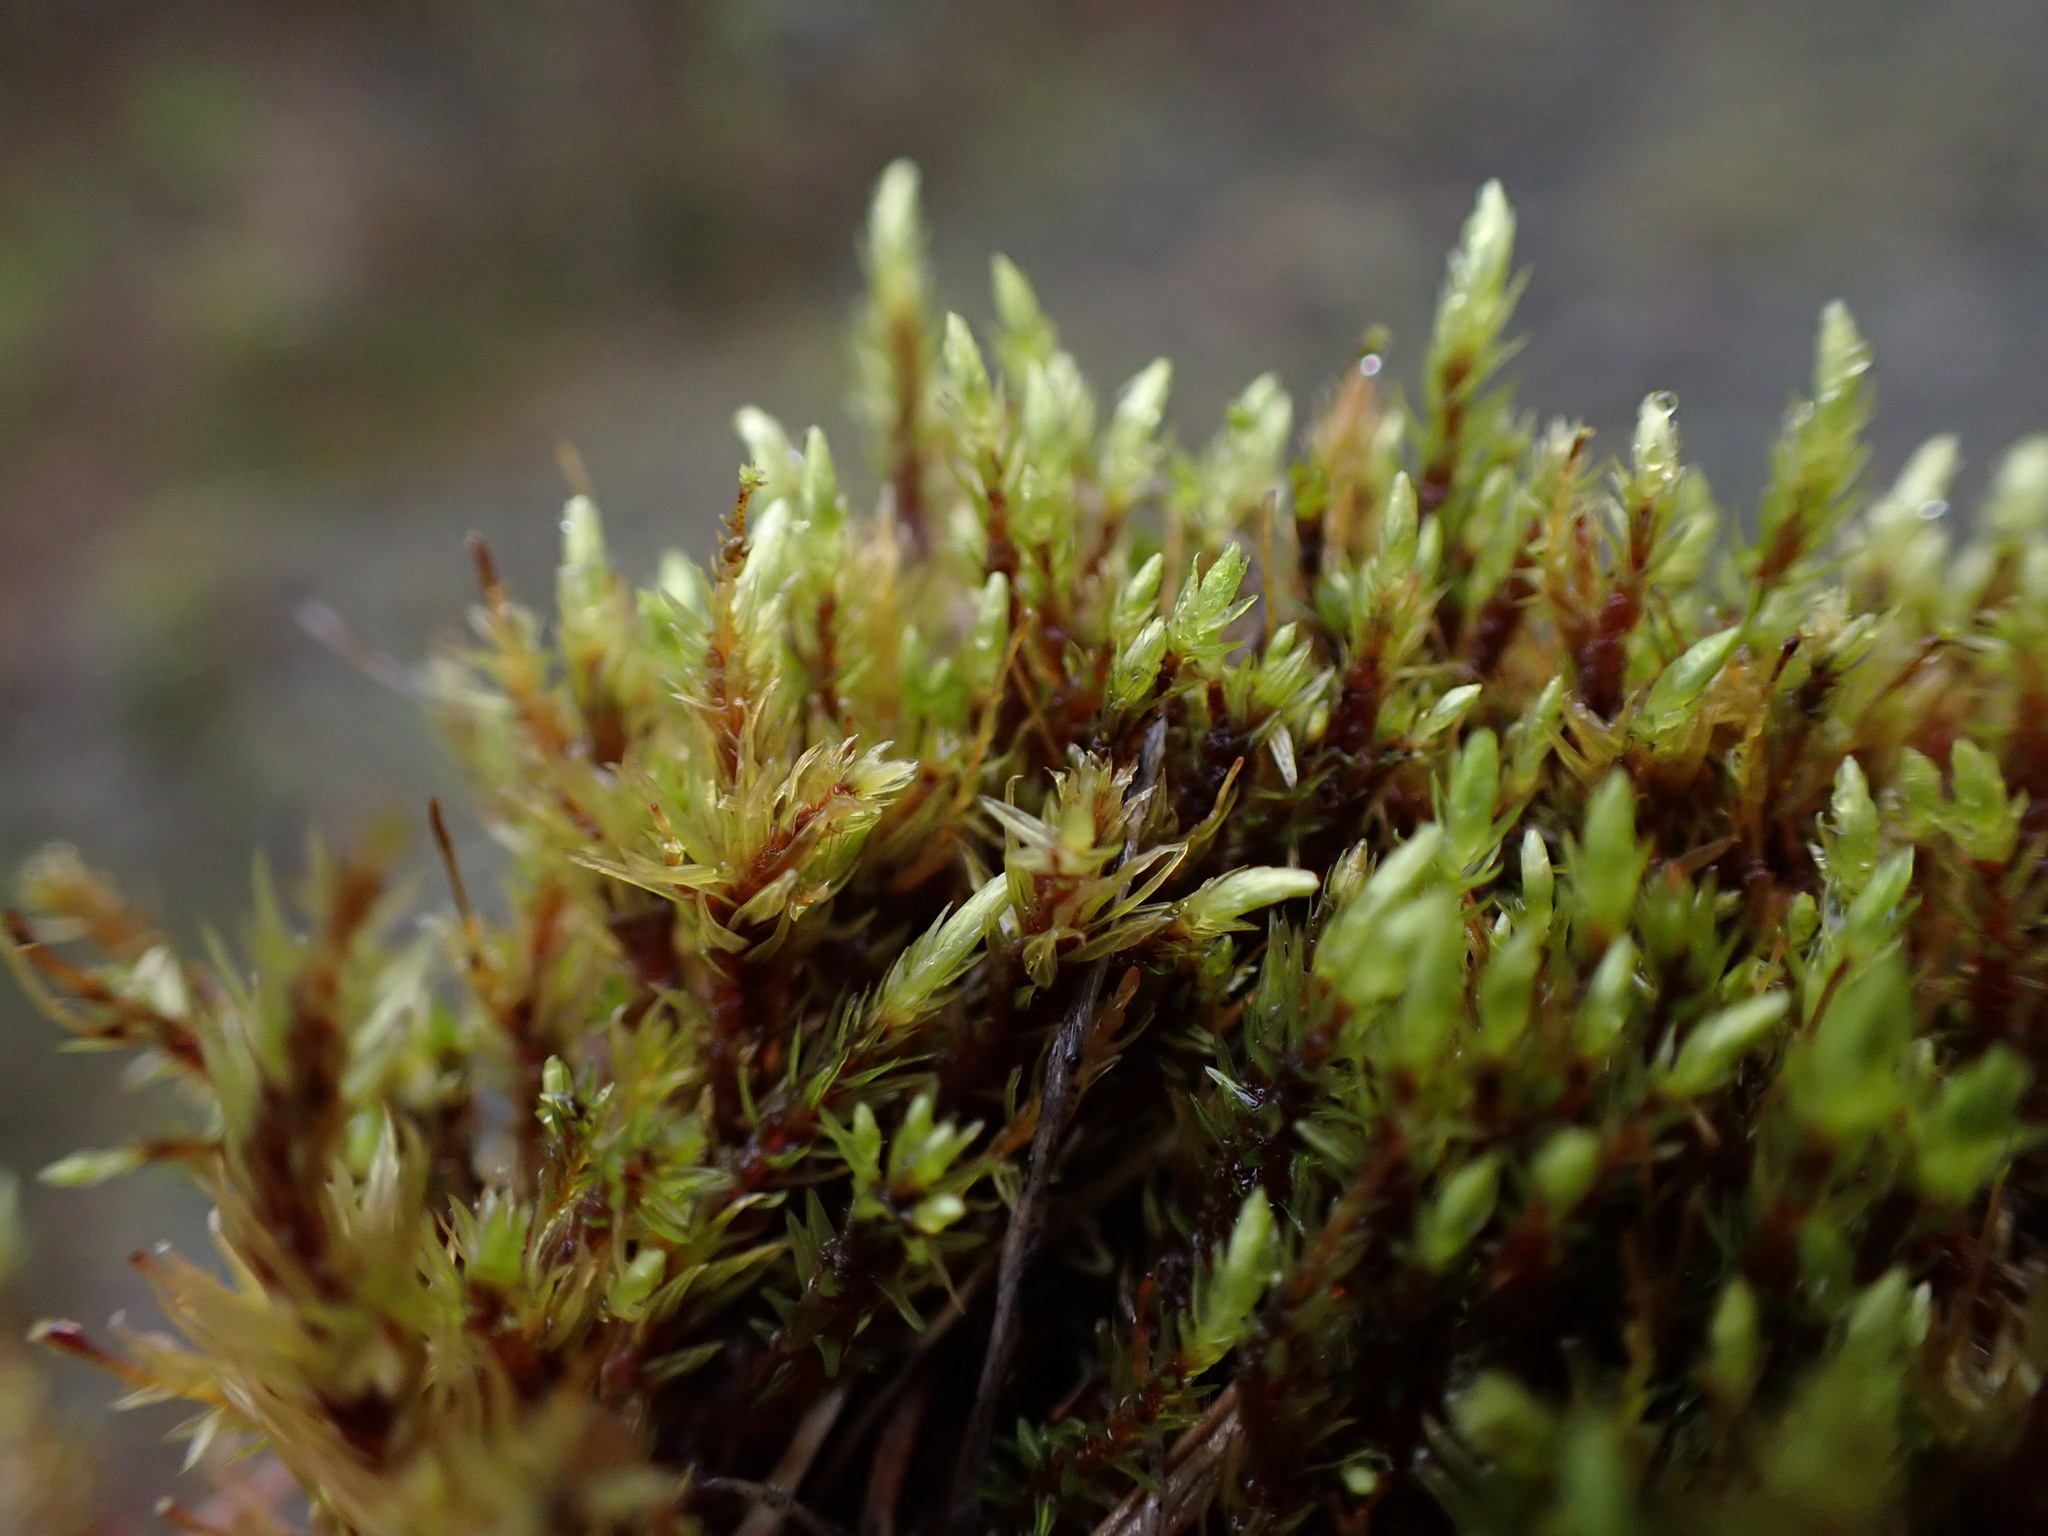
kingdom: Plantae
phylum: Bryophyta
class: Bryopsida
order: Aulacomniales
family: Aulacomniaceae
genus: Aulacomnium
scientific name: Aulacomnium palustre
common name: Bog groove-moss
